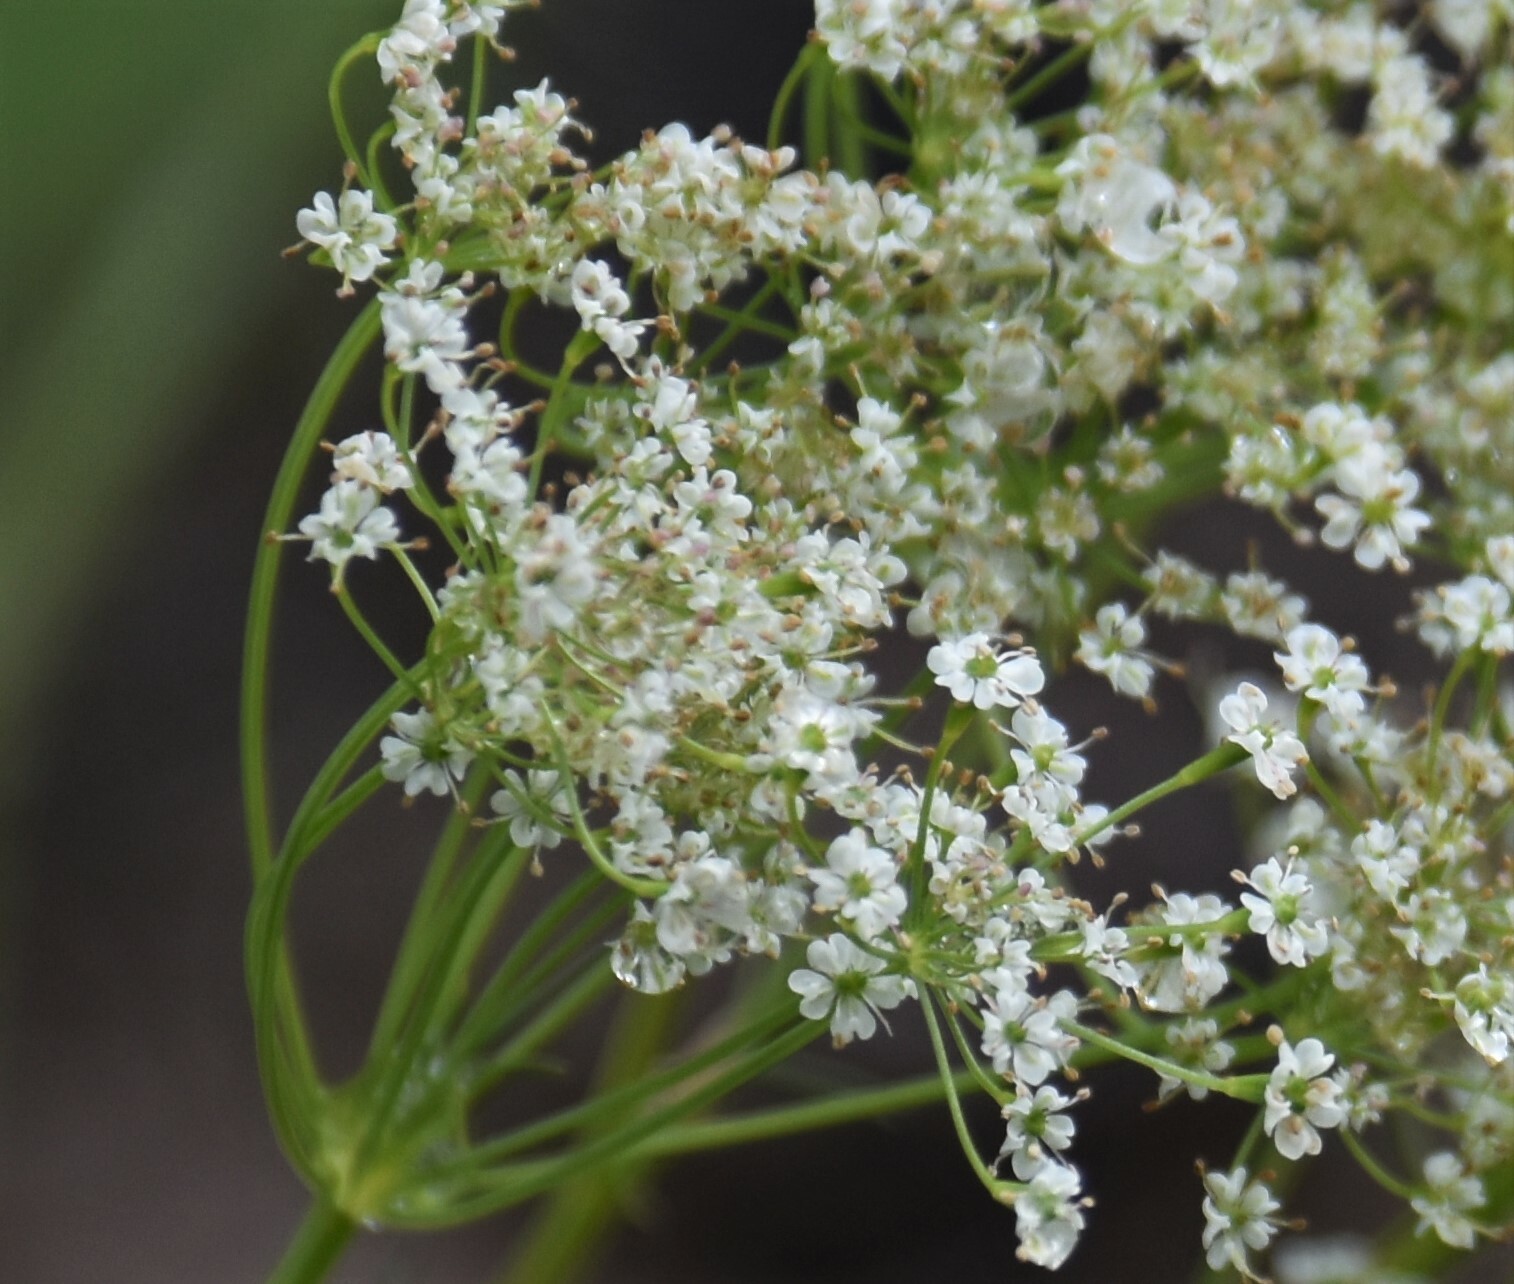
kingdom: Plantae
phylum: Tracheophyta
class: Magnoliopsida
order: Apiales
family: Apiaceae
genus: Carum
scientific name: Carum carvi
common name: Caraway
